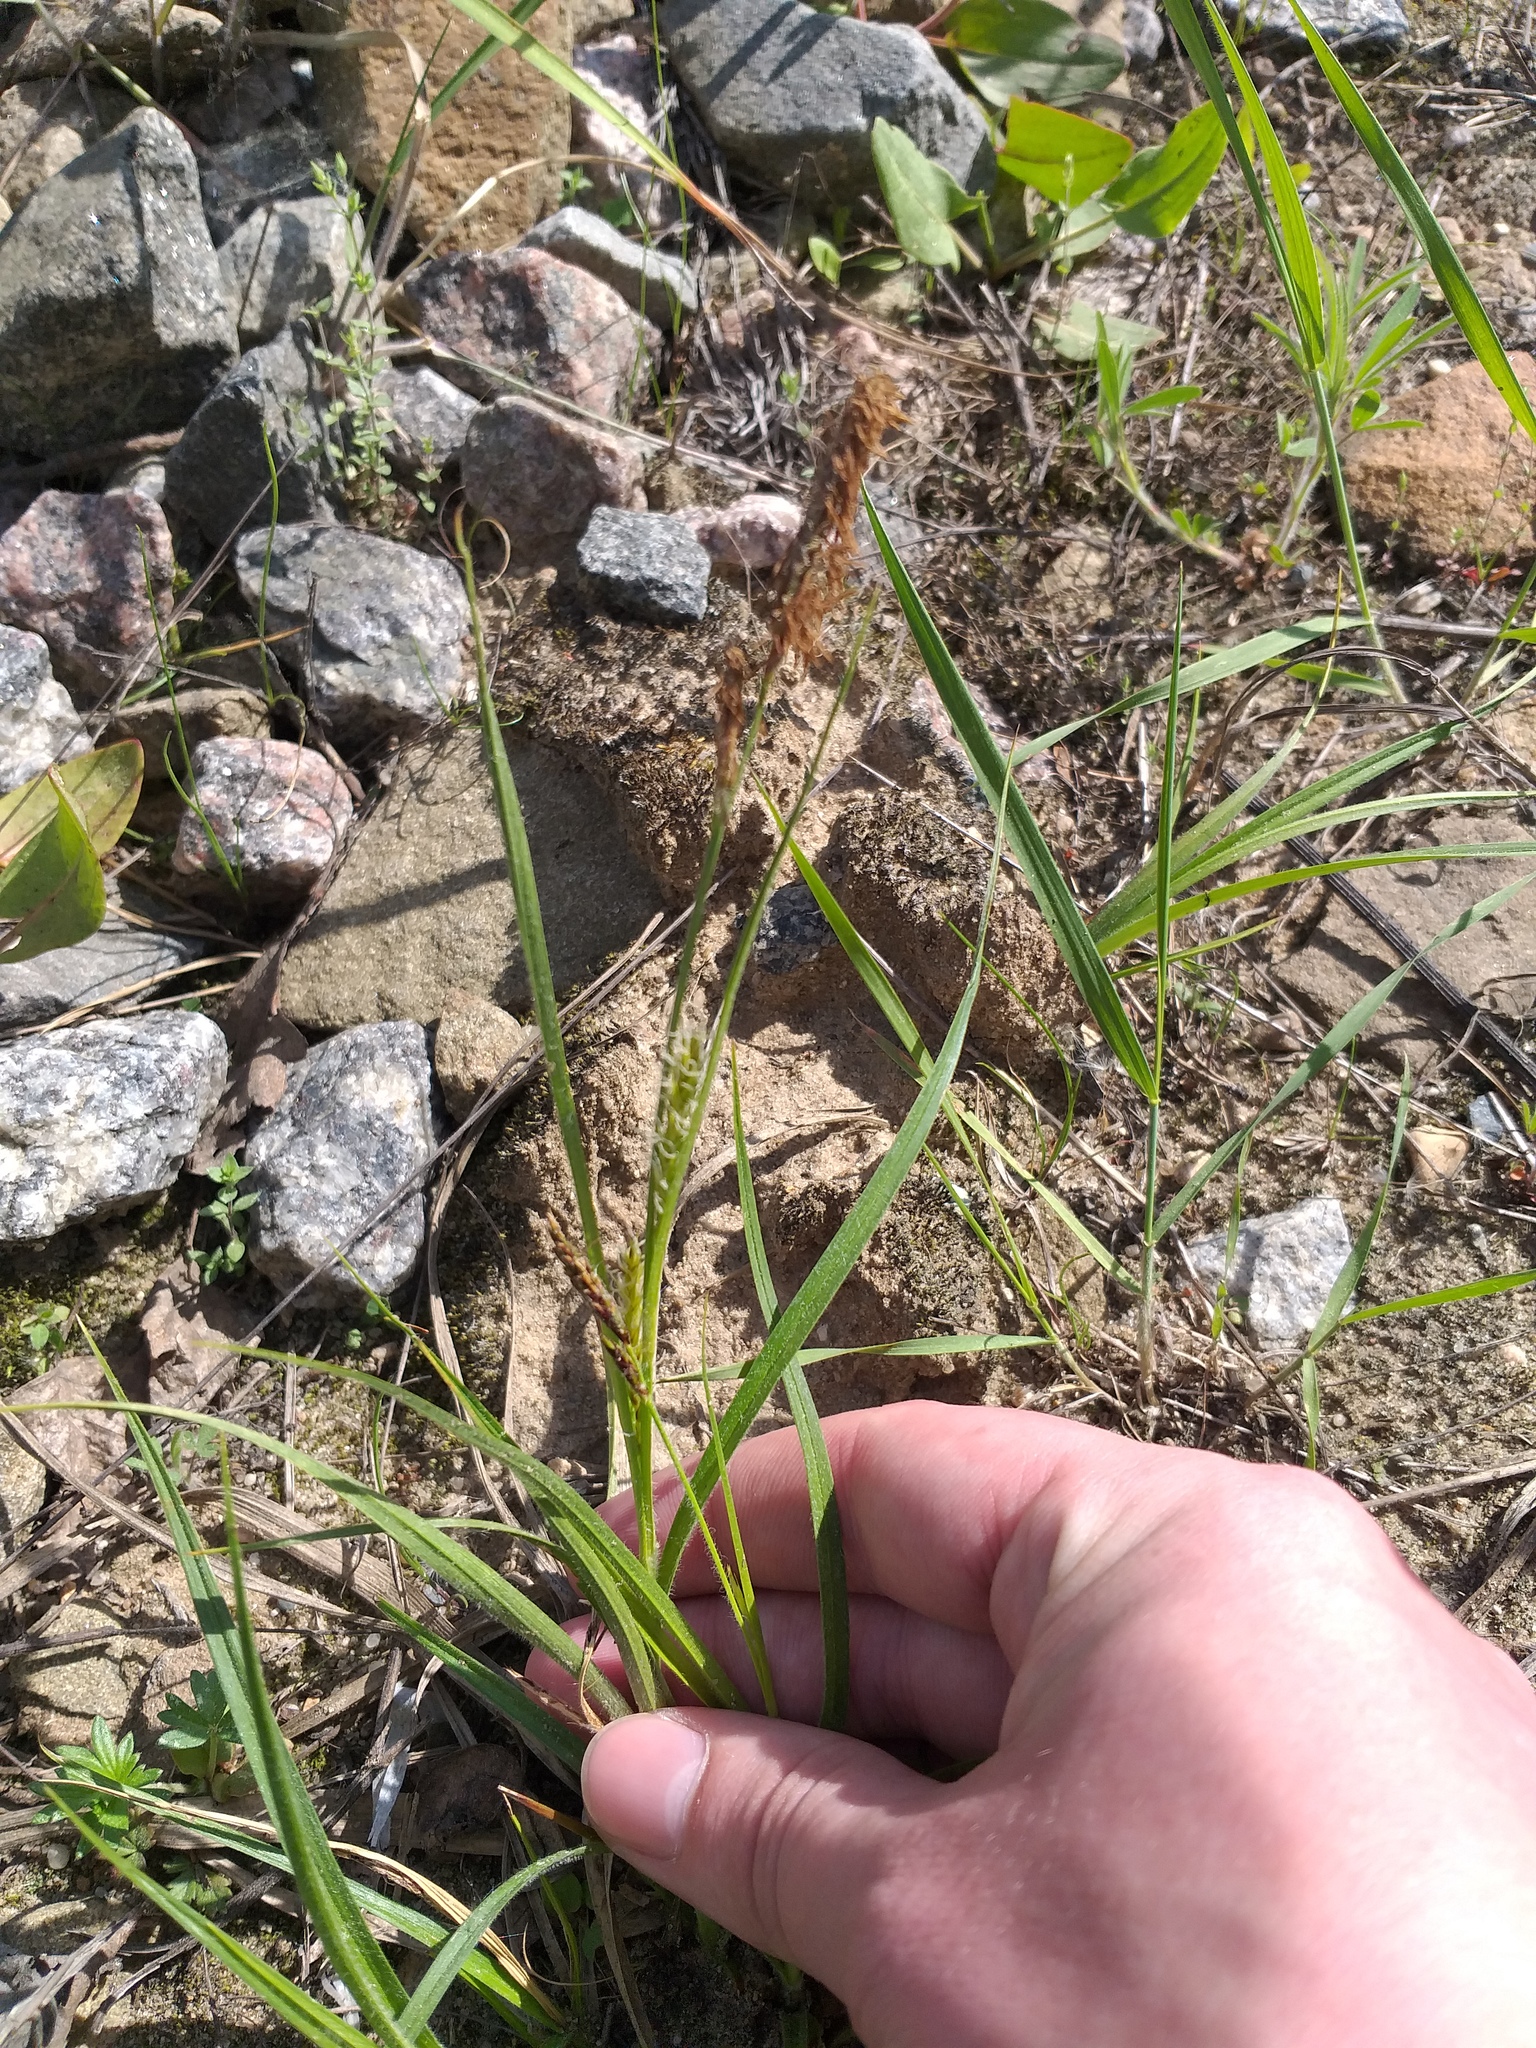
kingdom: Plantae
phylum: Tracheophyta
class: Liliopsida
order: Poales
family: Cyperaceae
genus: Carex
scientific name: Carex hirta
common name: Hairy sedge
